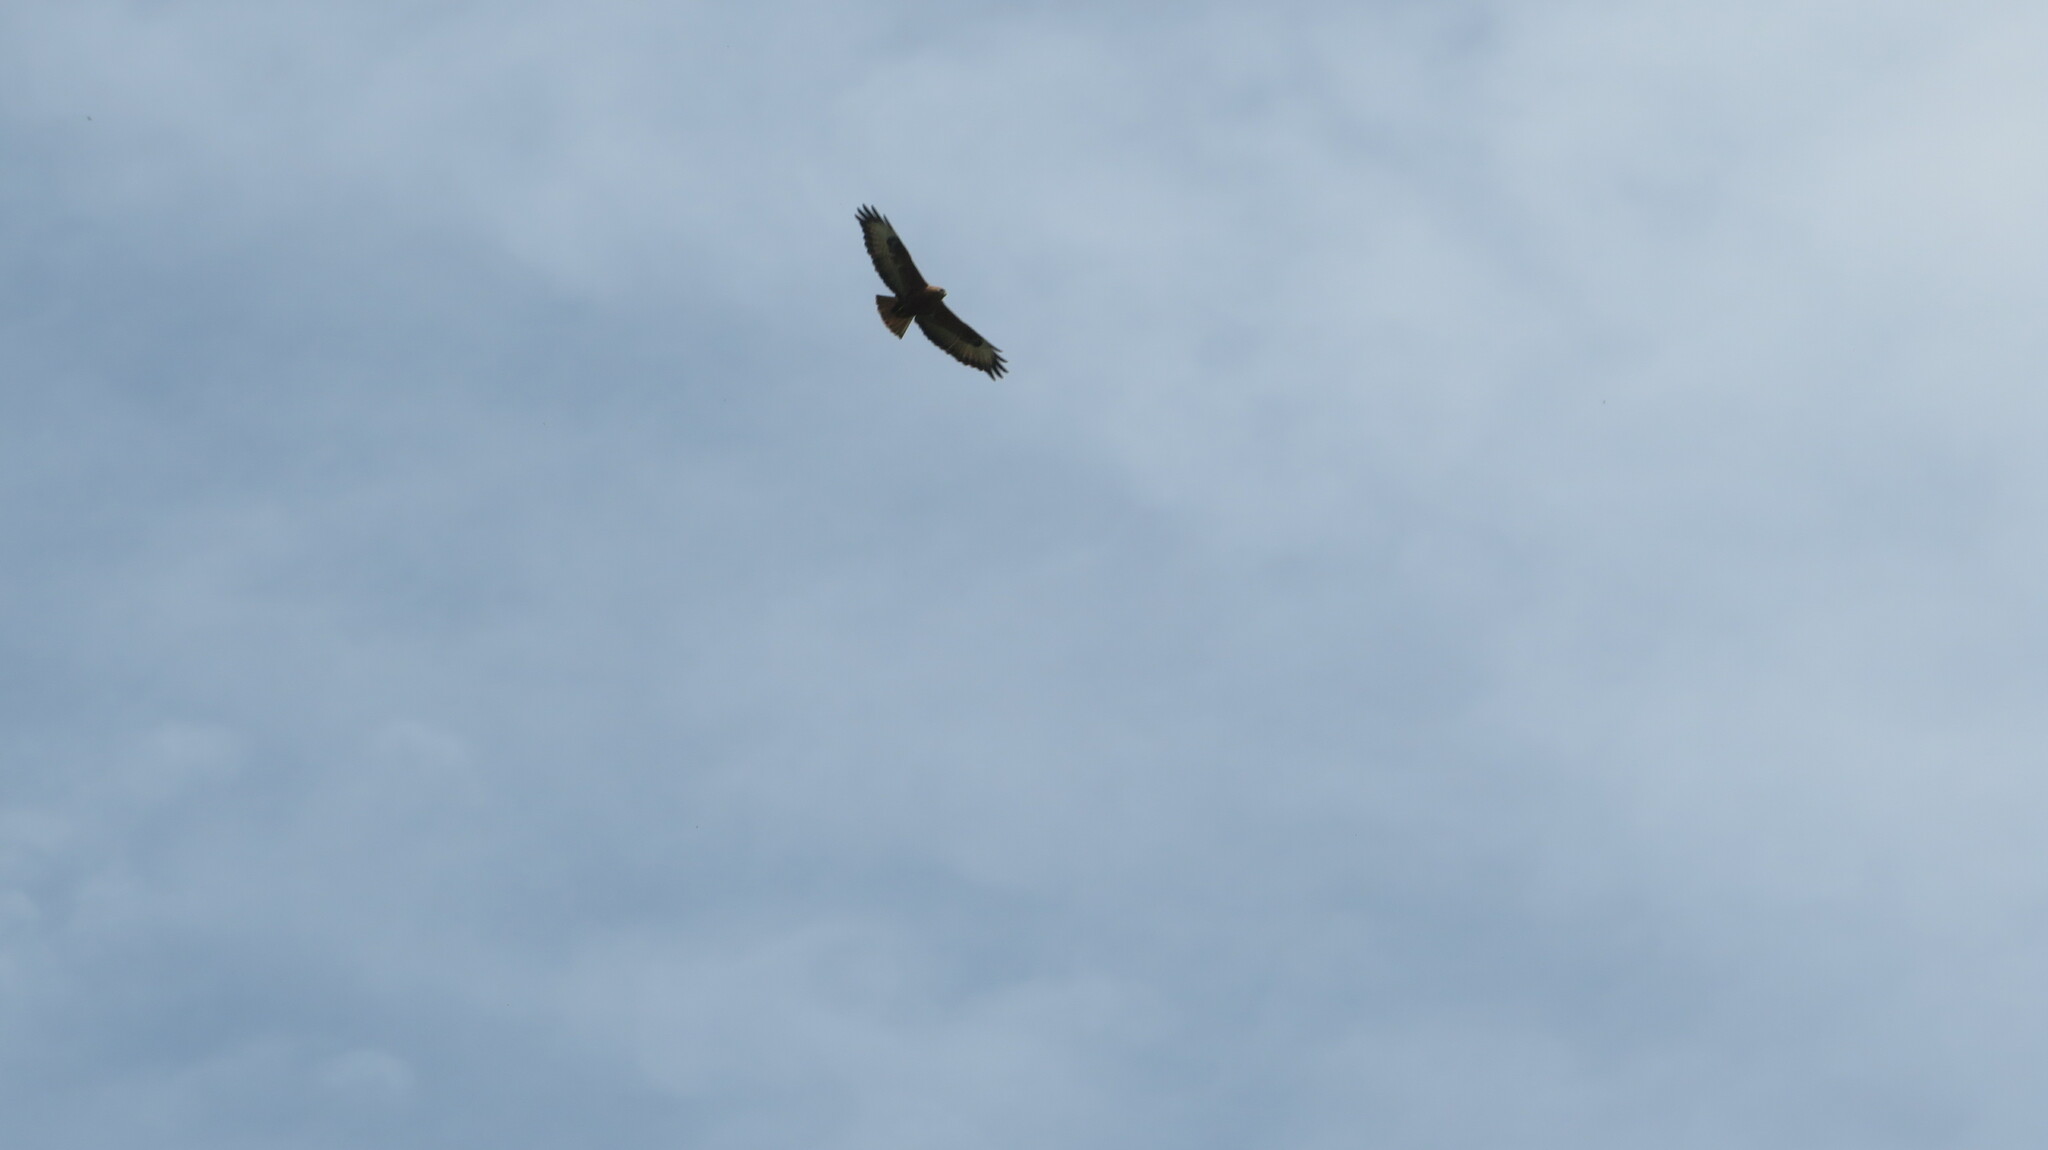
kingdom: Animalia
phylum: Chordata
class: Aves
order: Accipitriformes
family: Accipitridae
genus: Buteo
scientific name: Buteo buteo
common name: Common buzzard
